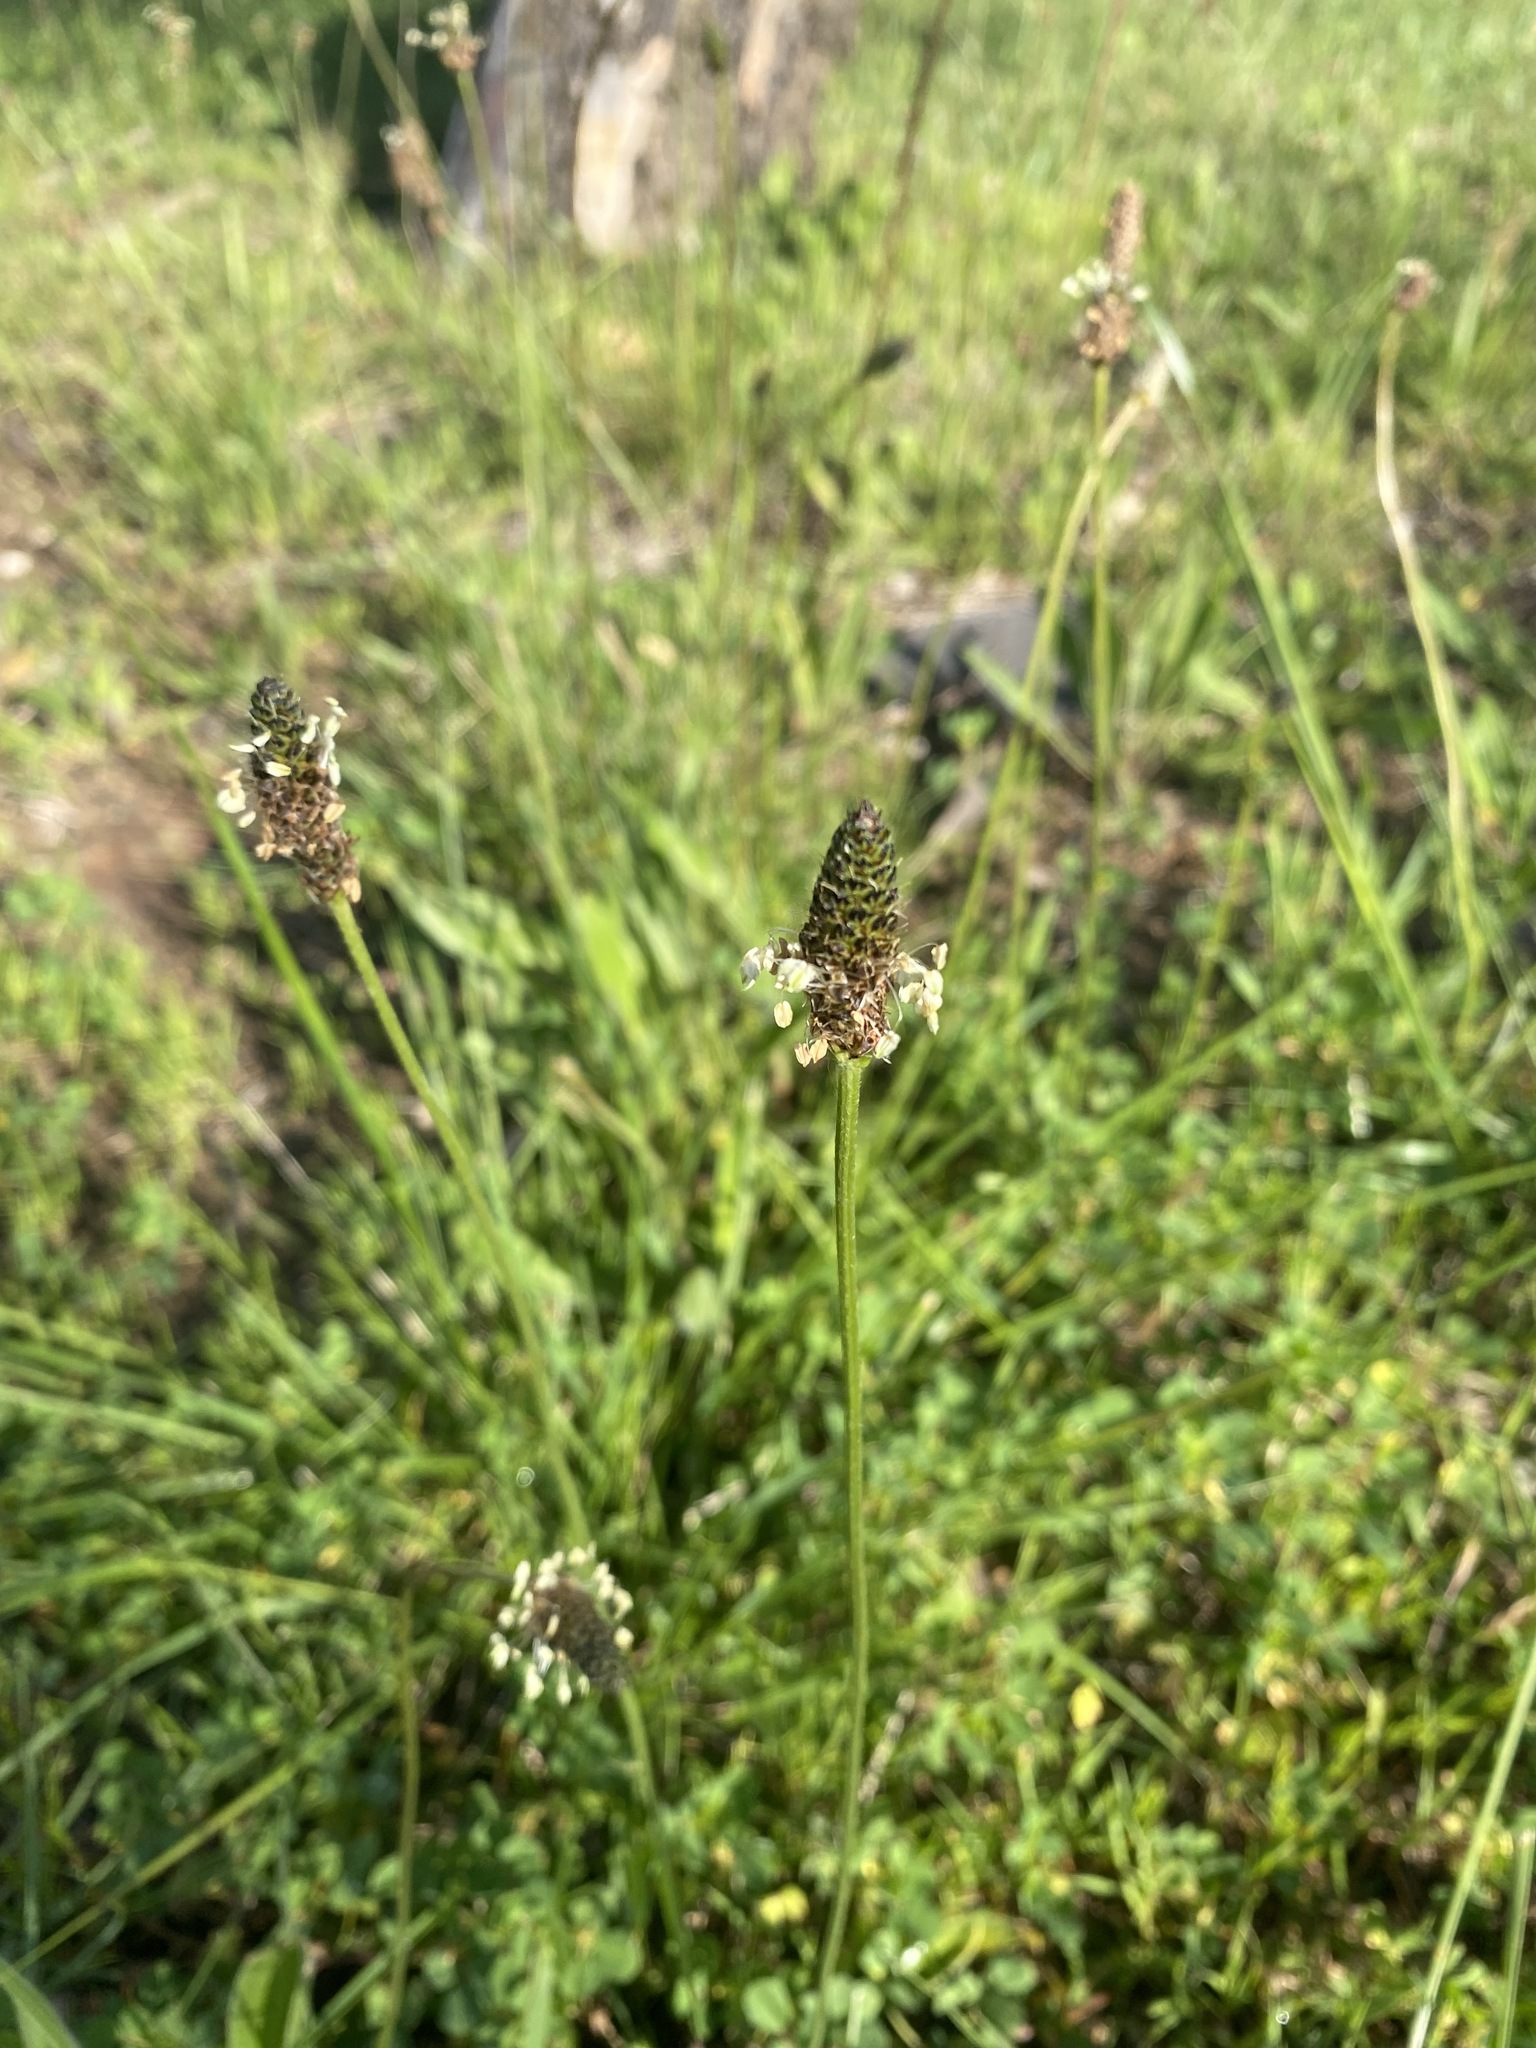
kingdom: Plantae
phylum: Tracheophyta
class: Magnoliopsida
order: Lamiales
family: Plantaginaceae
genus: Plantago
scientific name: Plantago lanceolata
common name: Ribwort plantain
